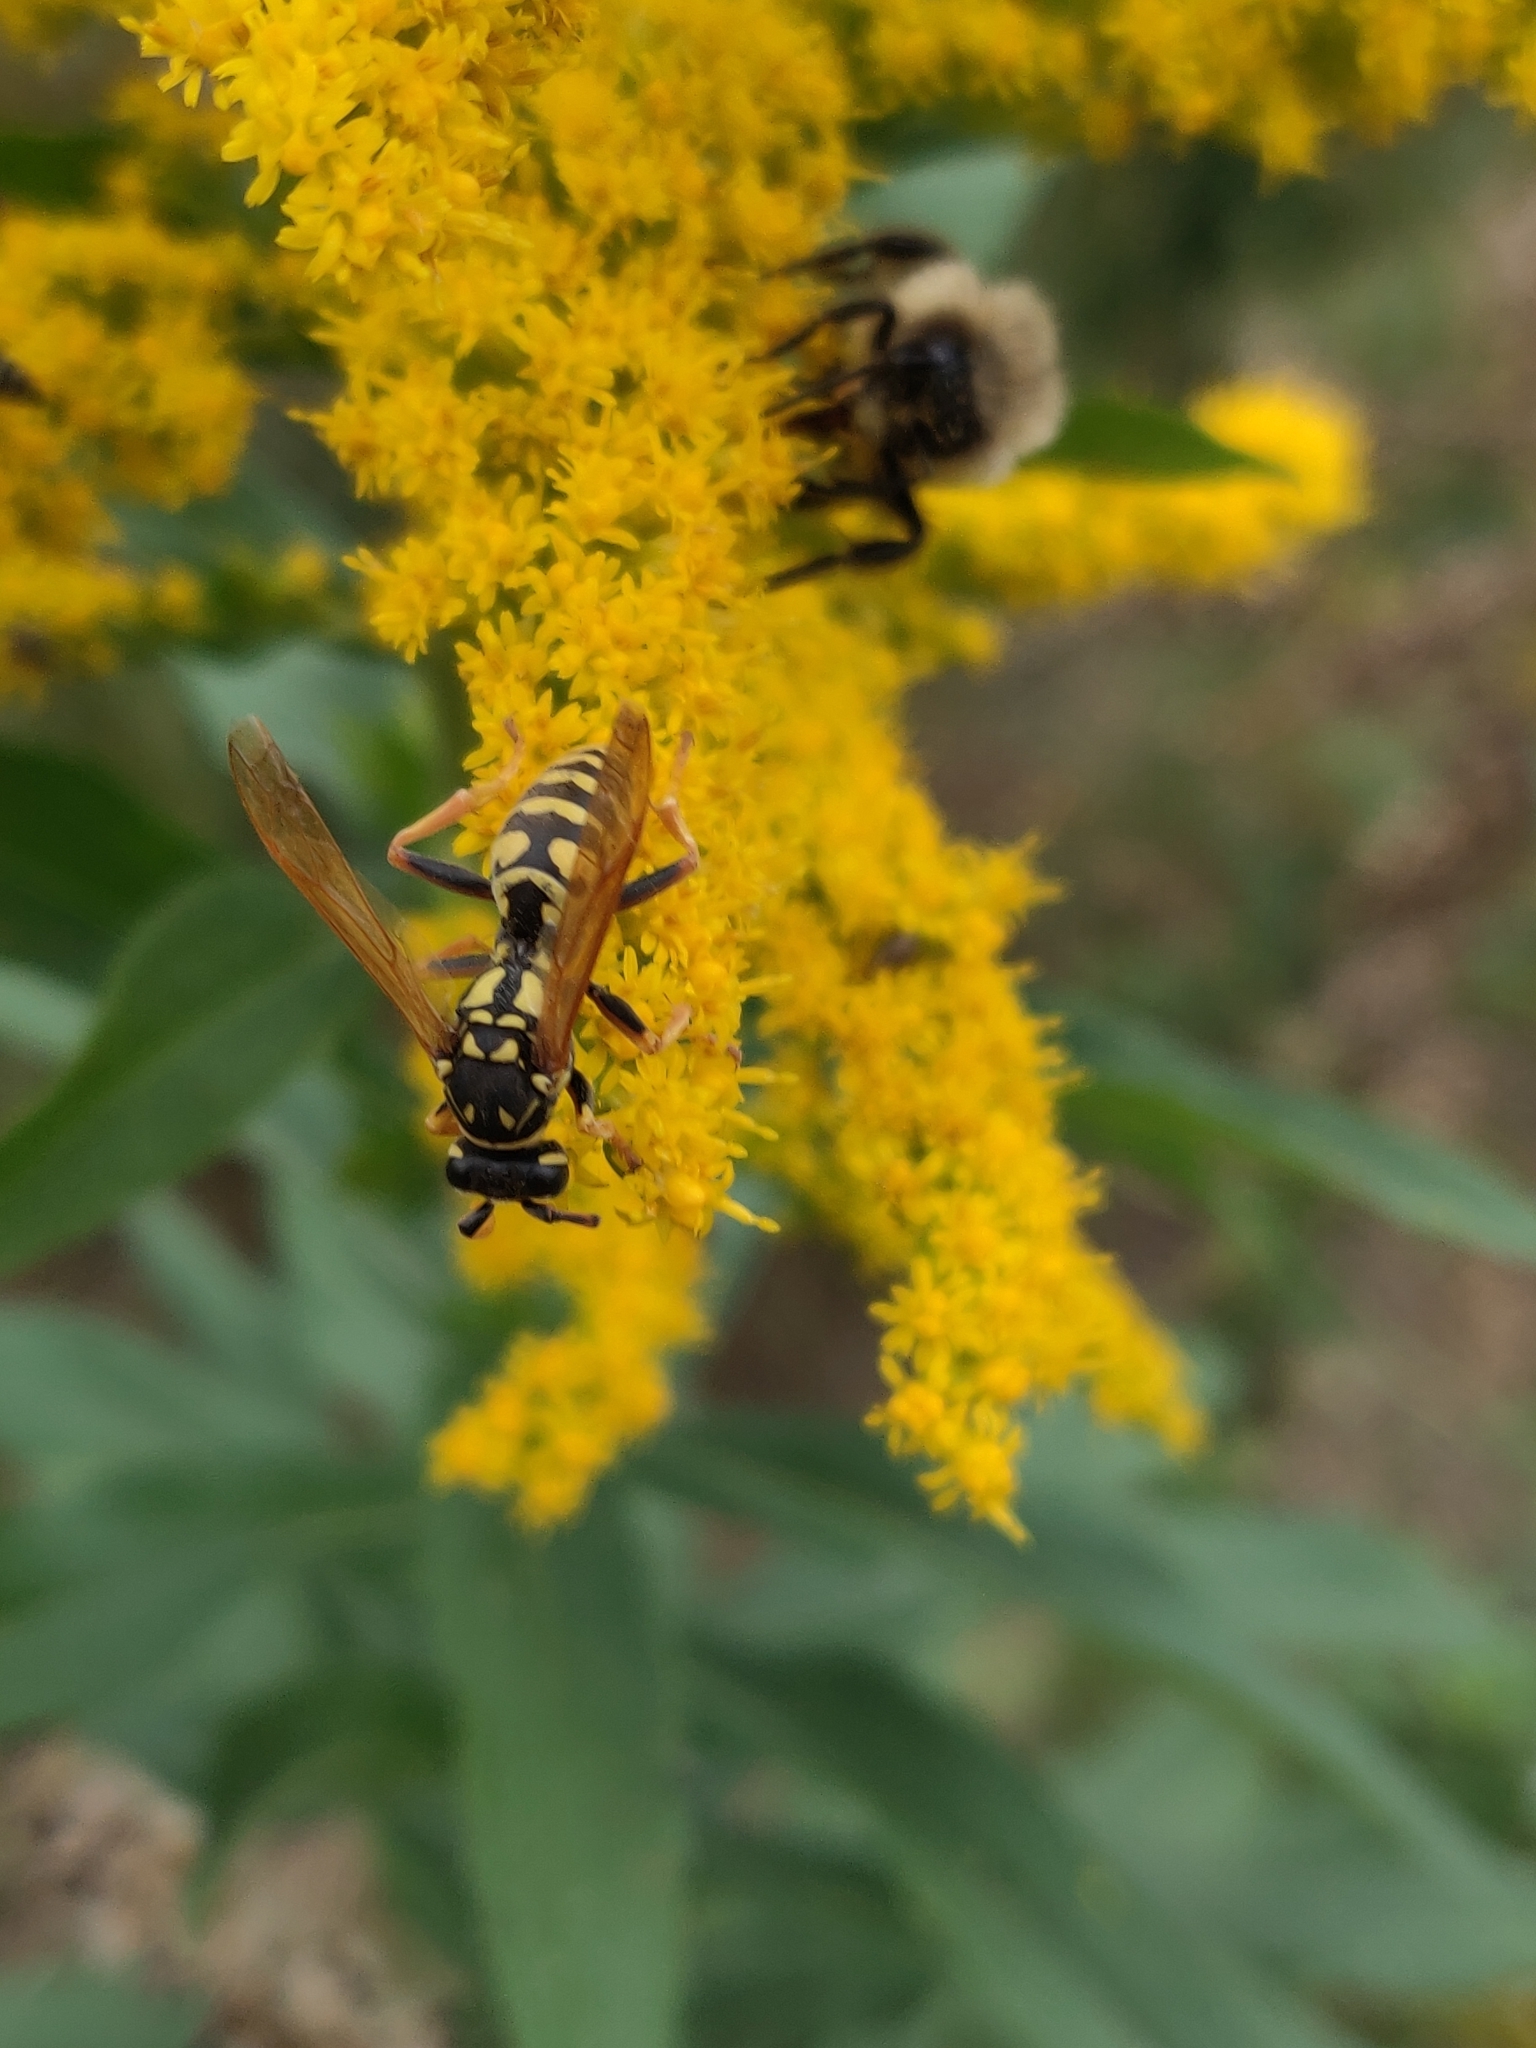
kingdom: Animalia
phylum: Arthropoda
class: Insecta
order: Hymenoptera
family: Eumenidae
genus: Polistes
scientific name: Polistes dominula
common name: Paper wasp
